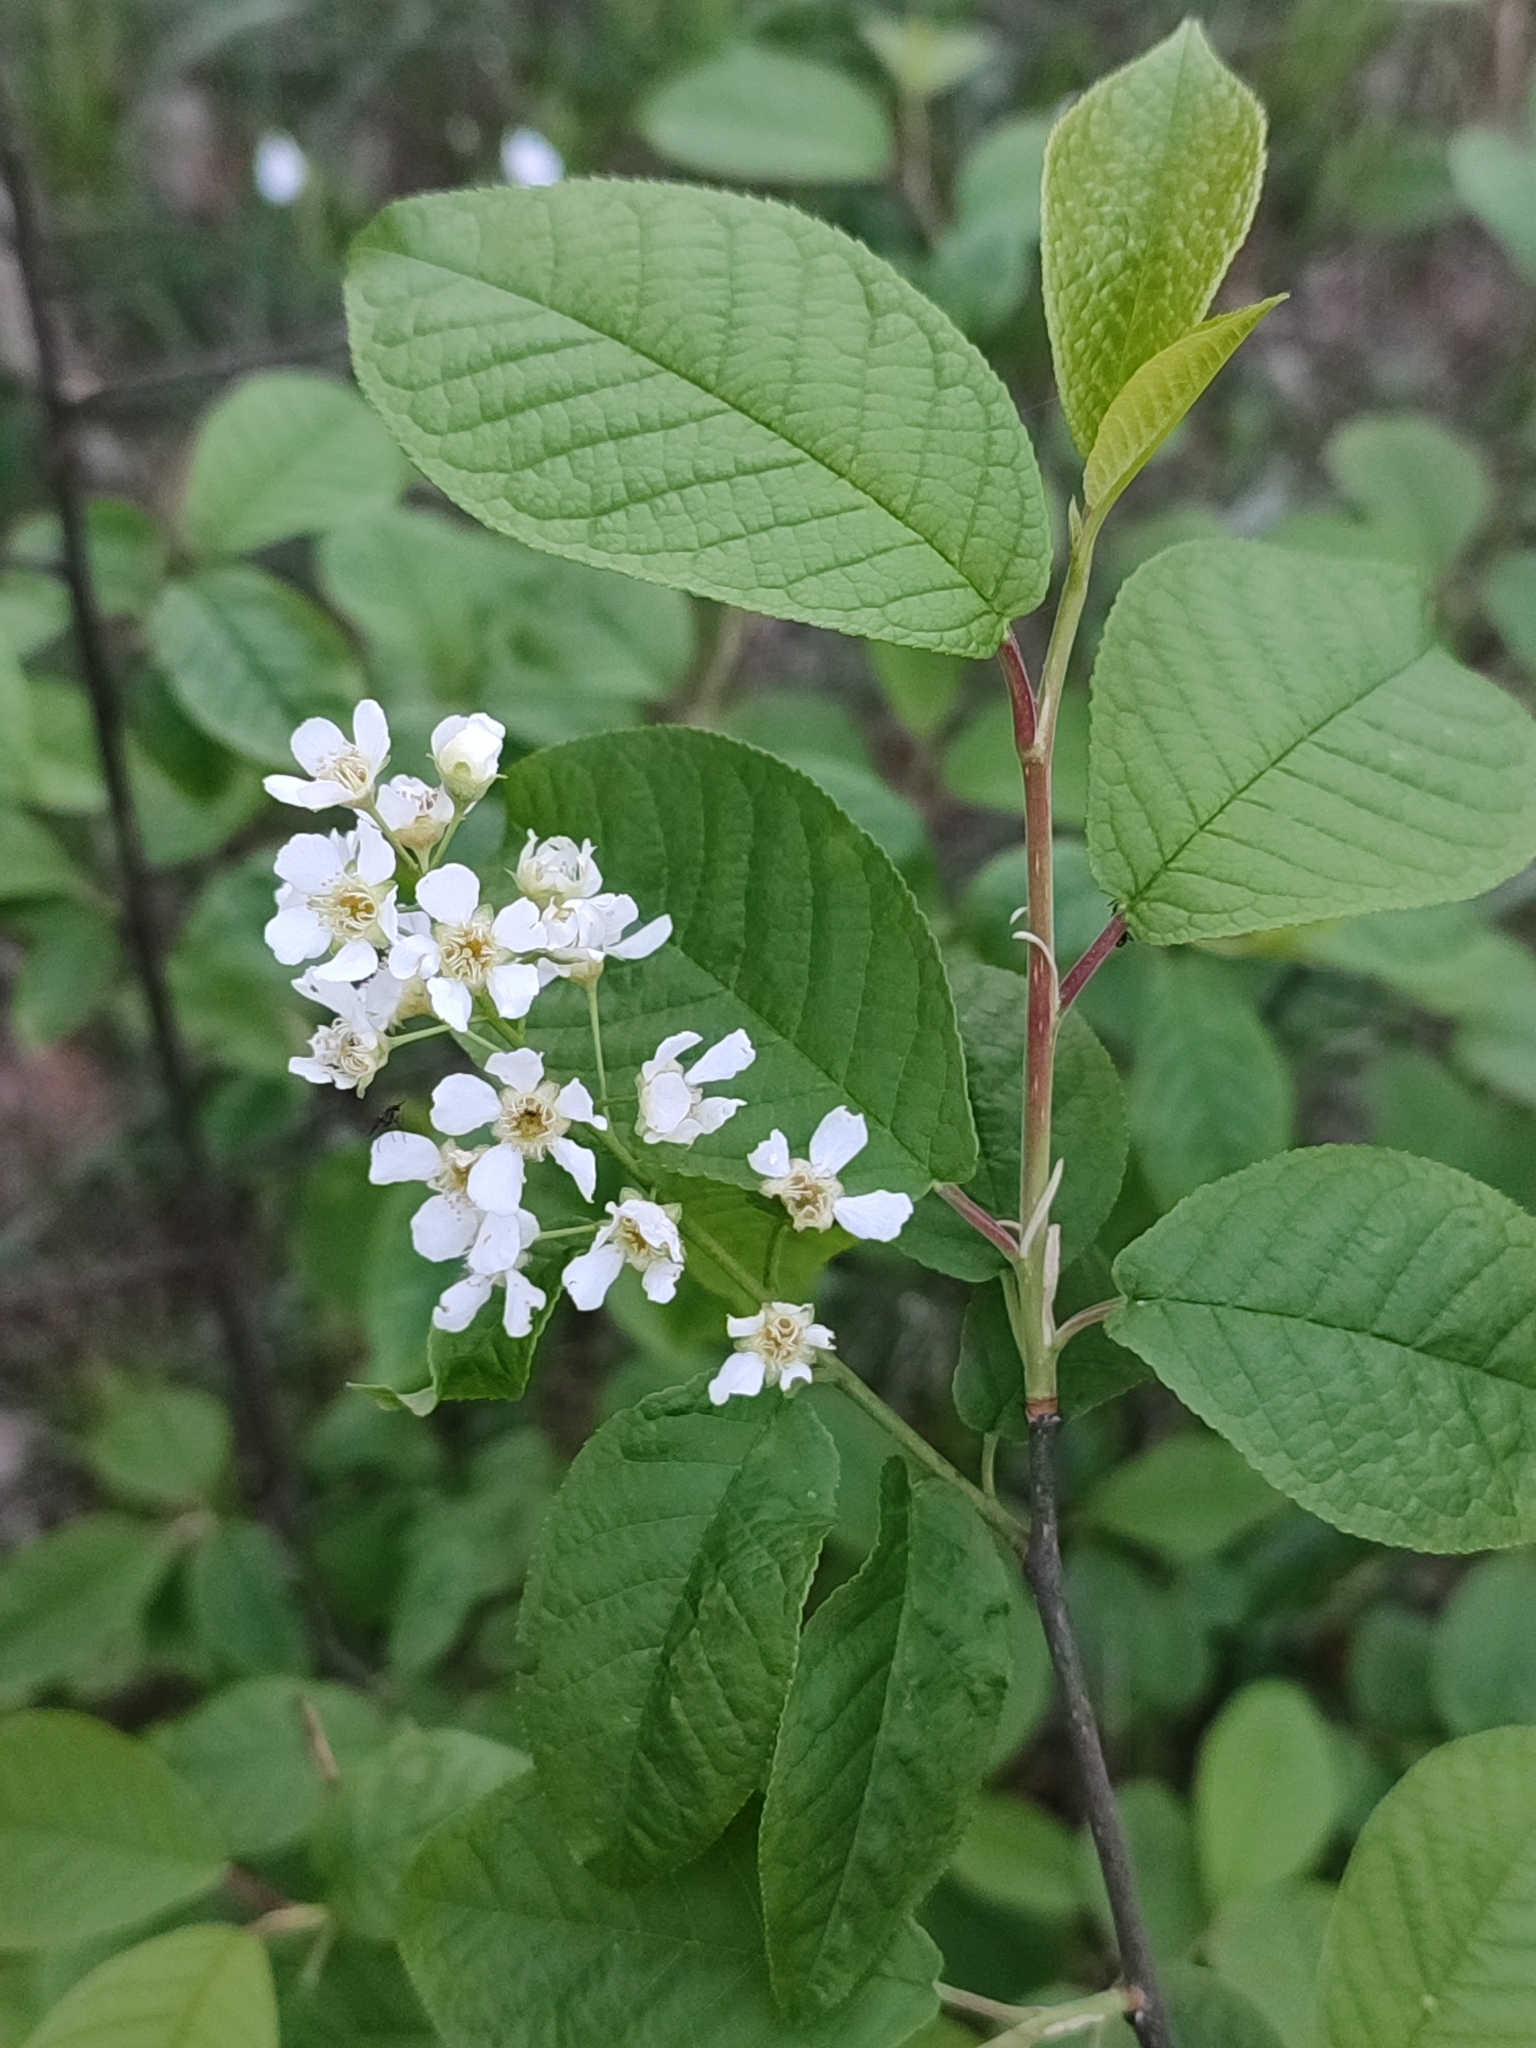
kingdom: Plantae
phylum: Tracheophyta
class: Magnoliopsida
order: Rosales
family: Rosaceae
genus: Prunus
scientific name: Prunus padus
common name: Bird cherry
